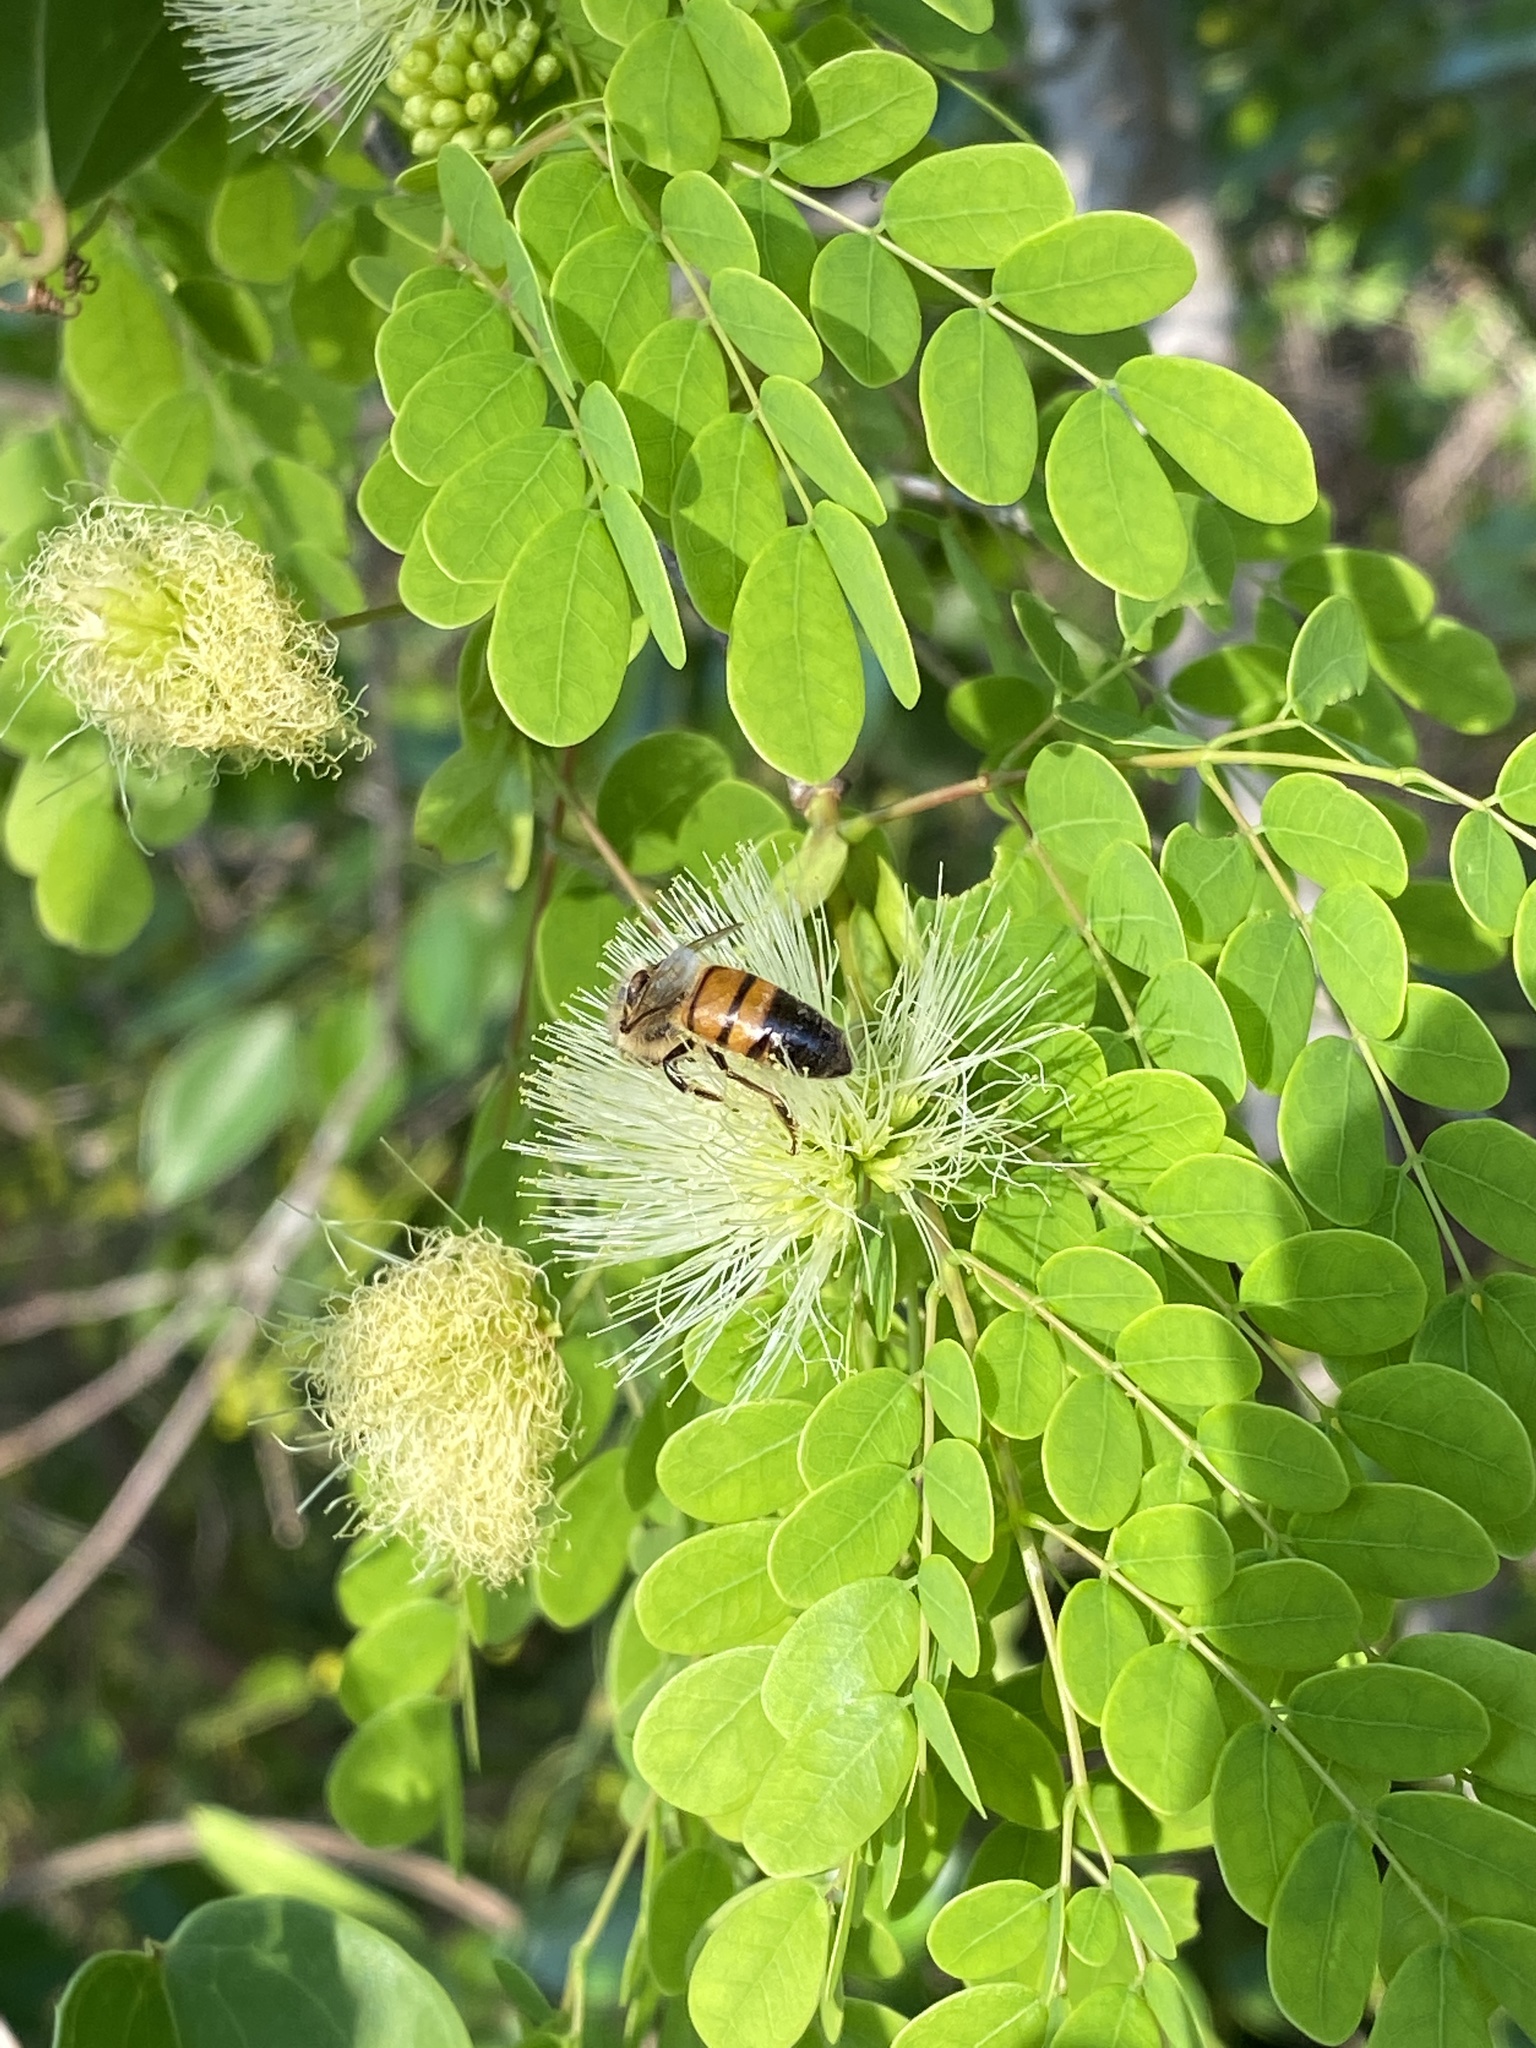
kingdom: Animalia
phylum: Arthropoda
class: Insecta
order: Hymenoptera
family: Apidae
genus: Apis
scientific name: Apis mellifera
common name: Honey bee
